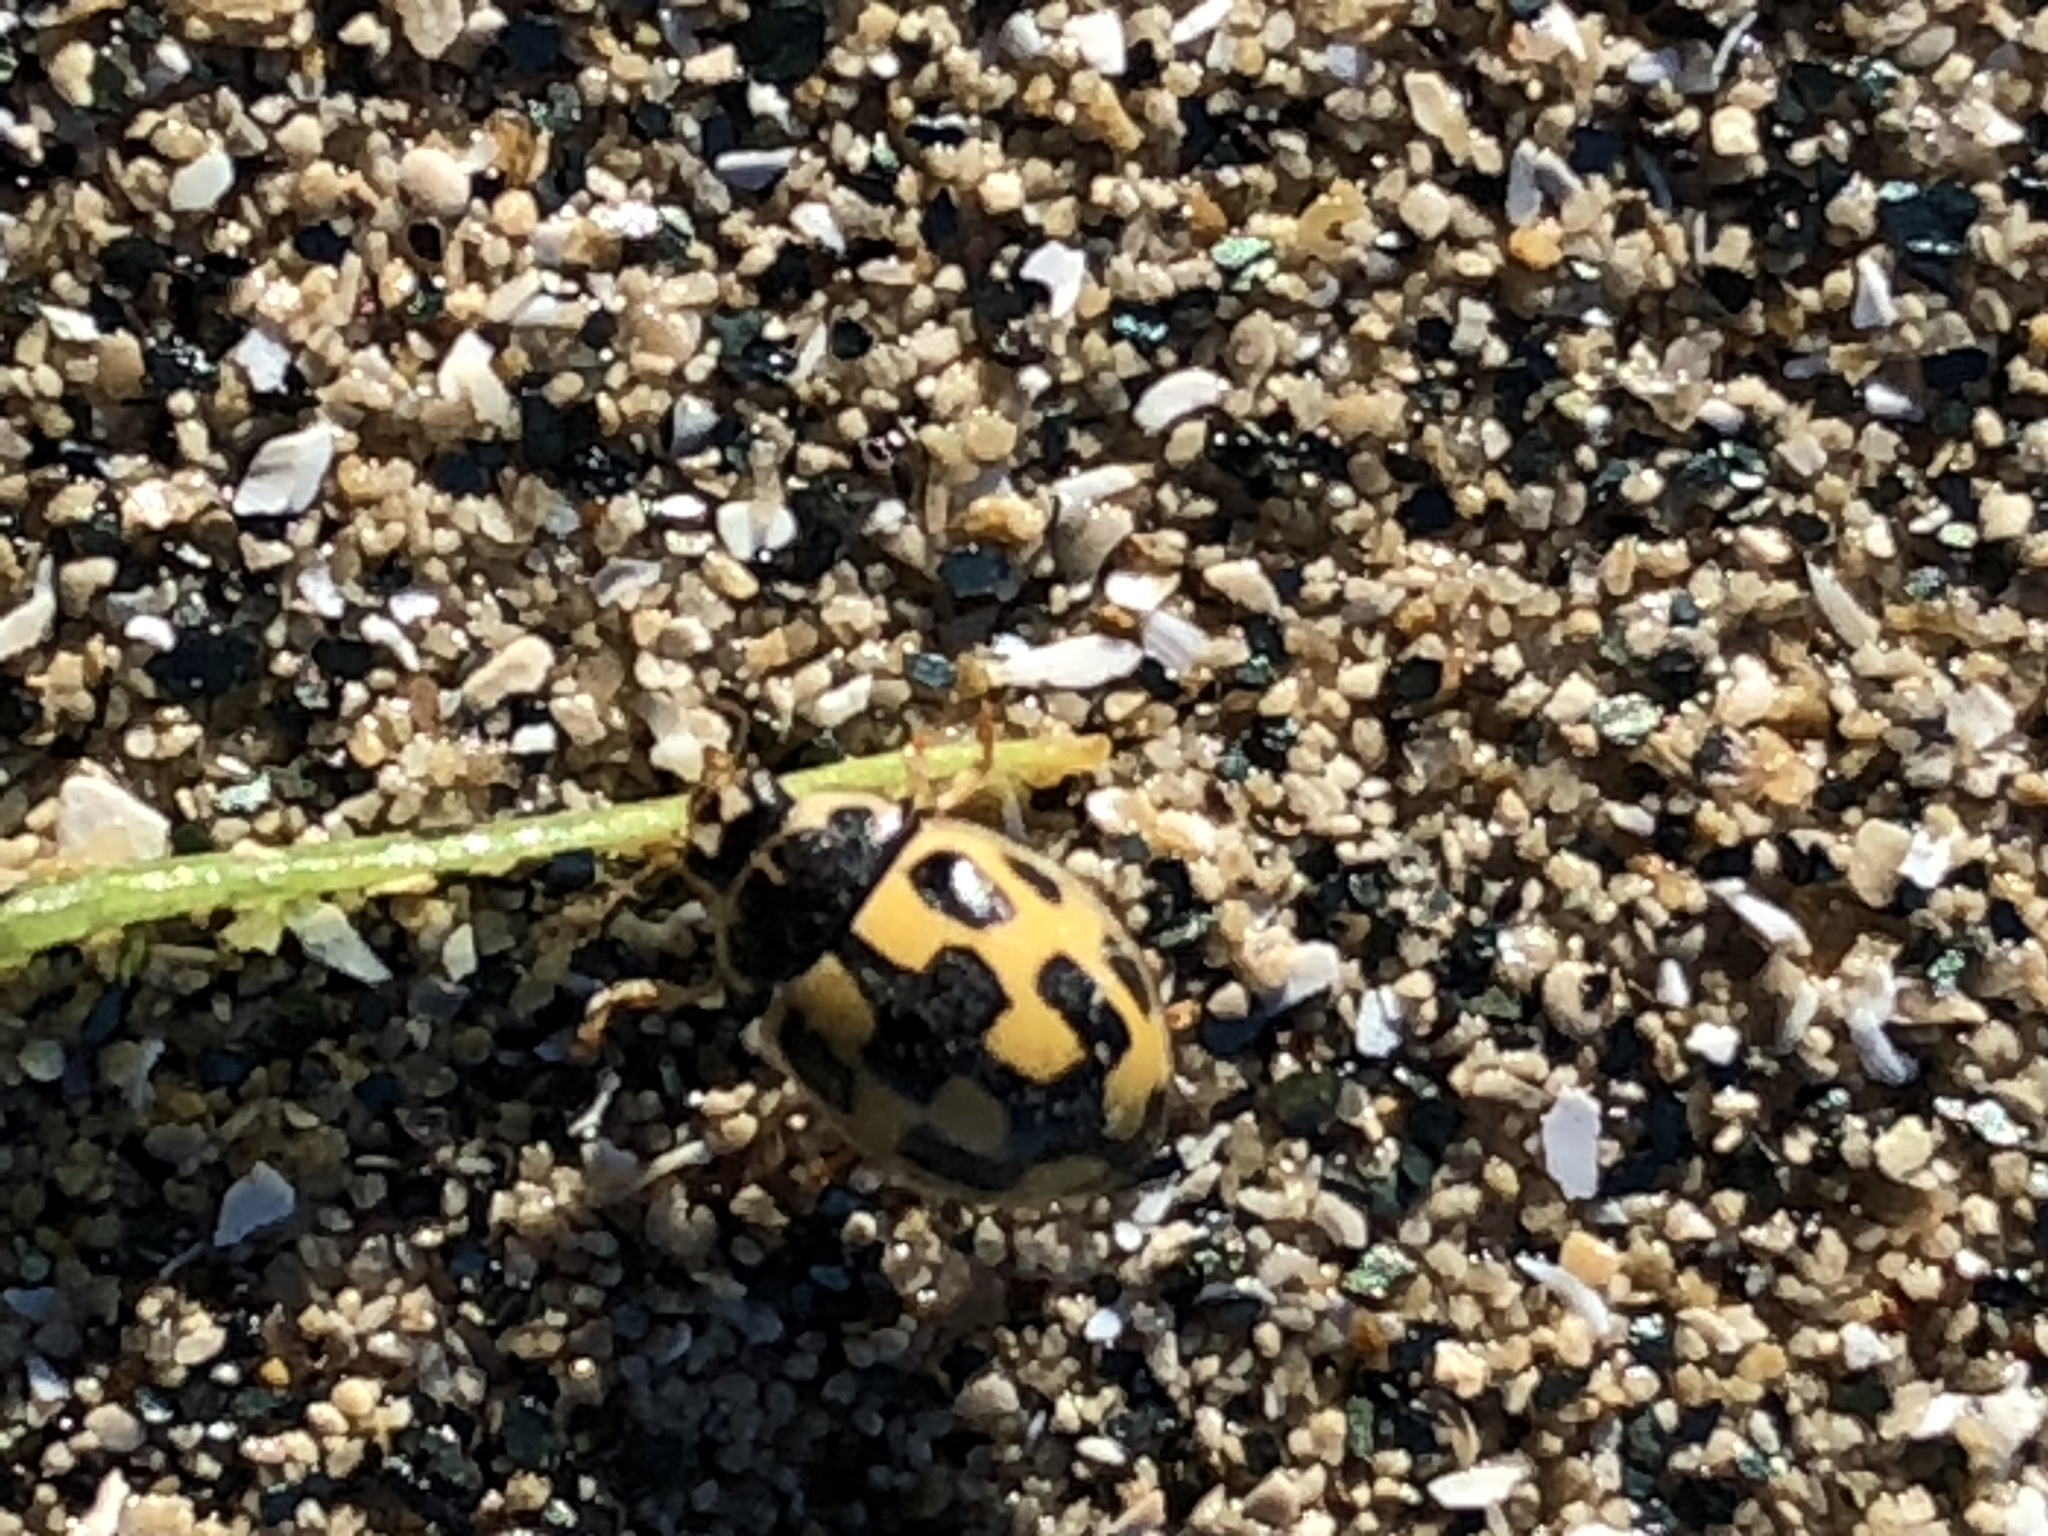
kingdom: Animalia
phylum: Arthropoda
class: Insecta
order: Coleoptera
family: Coccinellidae
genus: Propylaea
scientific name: Propylaea quatuordecimpunctata
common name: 14-spotted ladybird beetle
